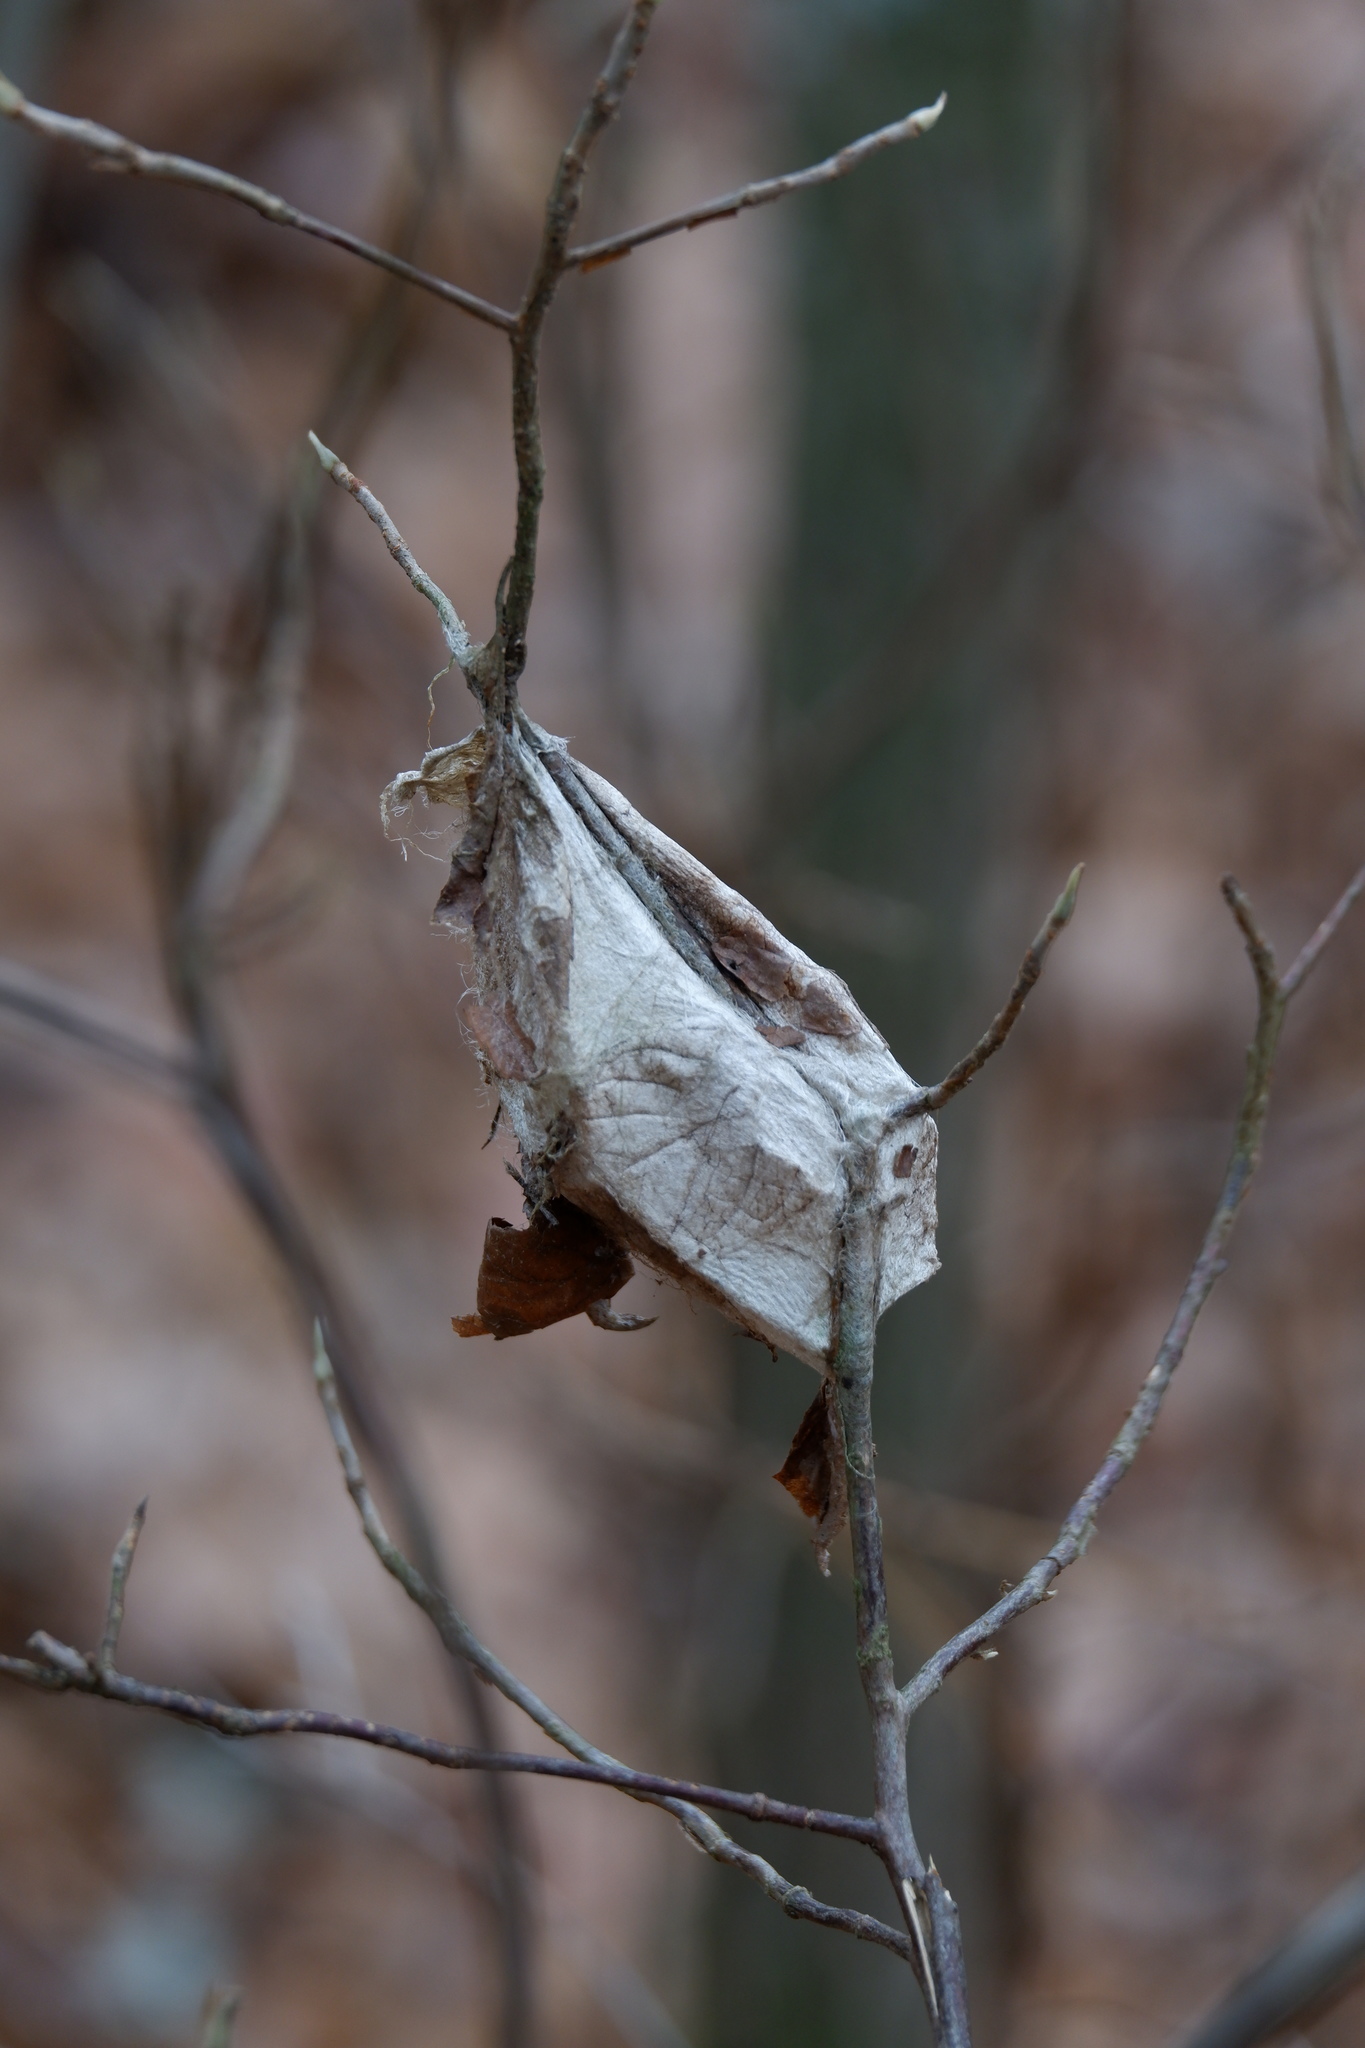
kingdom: Animalia
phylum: Arthropoda
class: Insecta
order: Lepidoptera
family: Saturniidae
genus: Hyalophora
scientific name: Hyalophora cecropia
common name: Cecropia silkmoth
